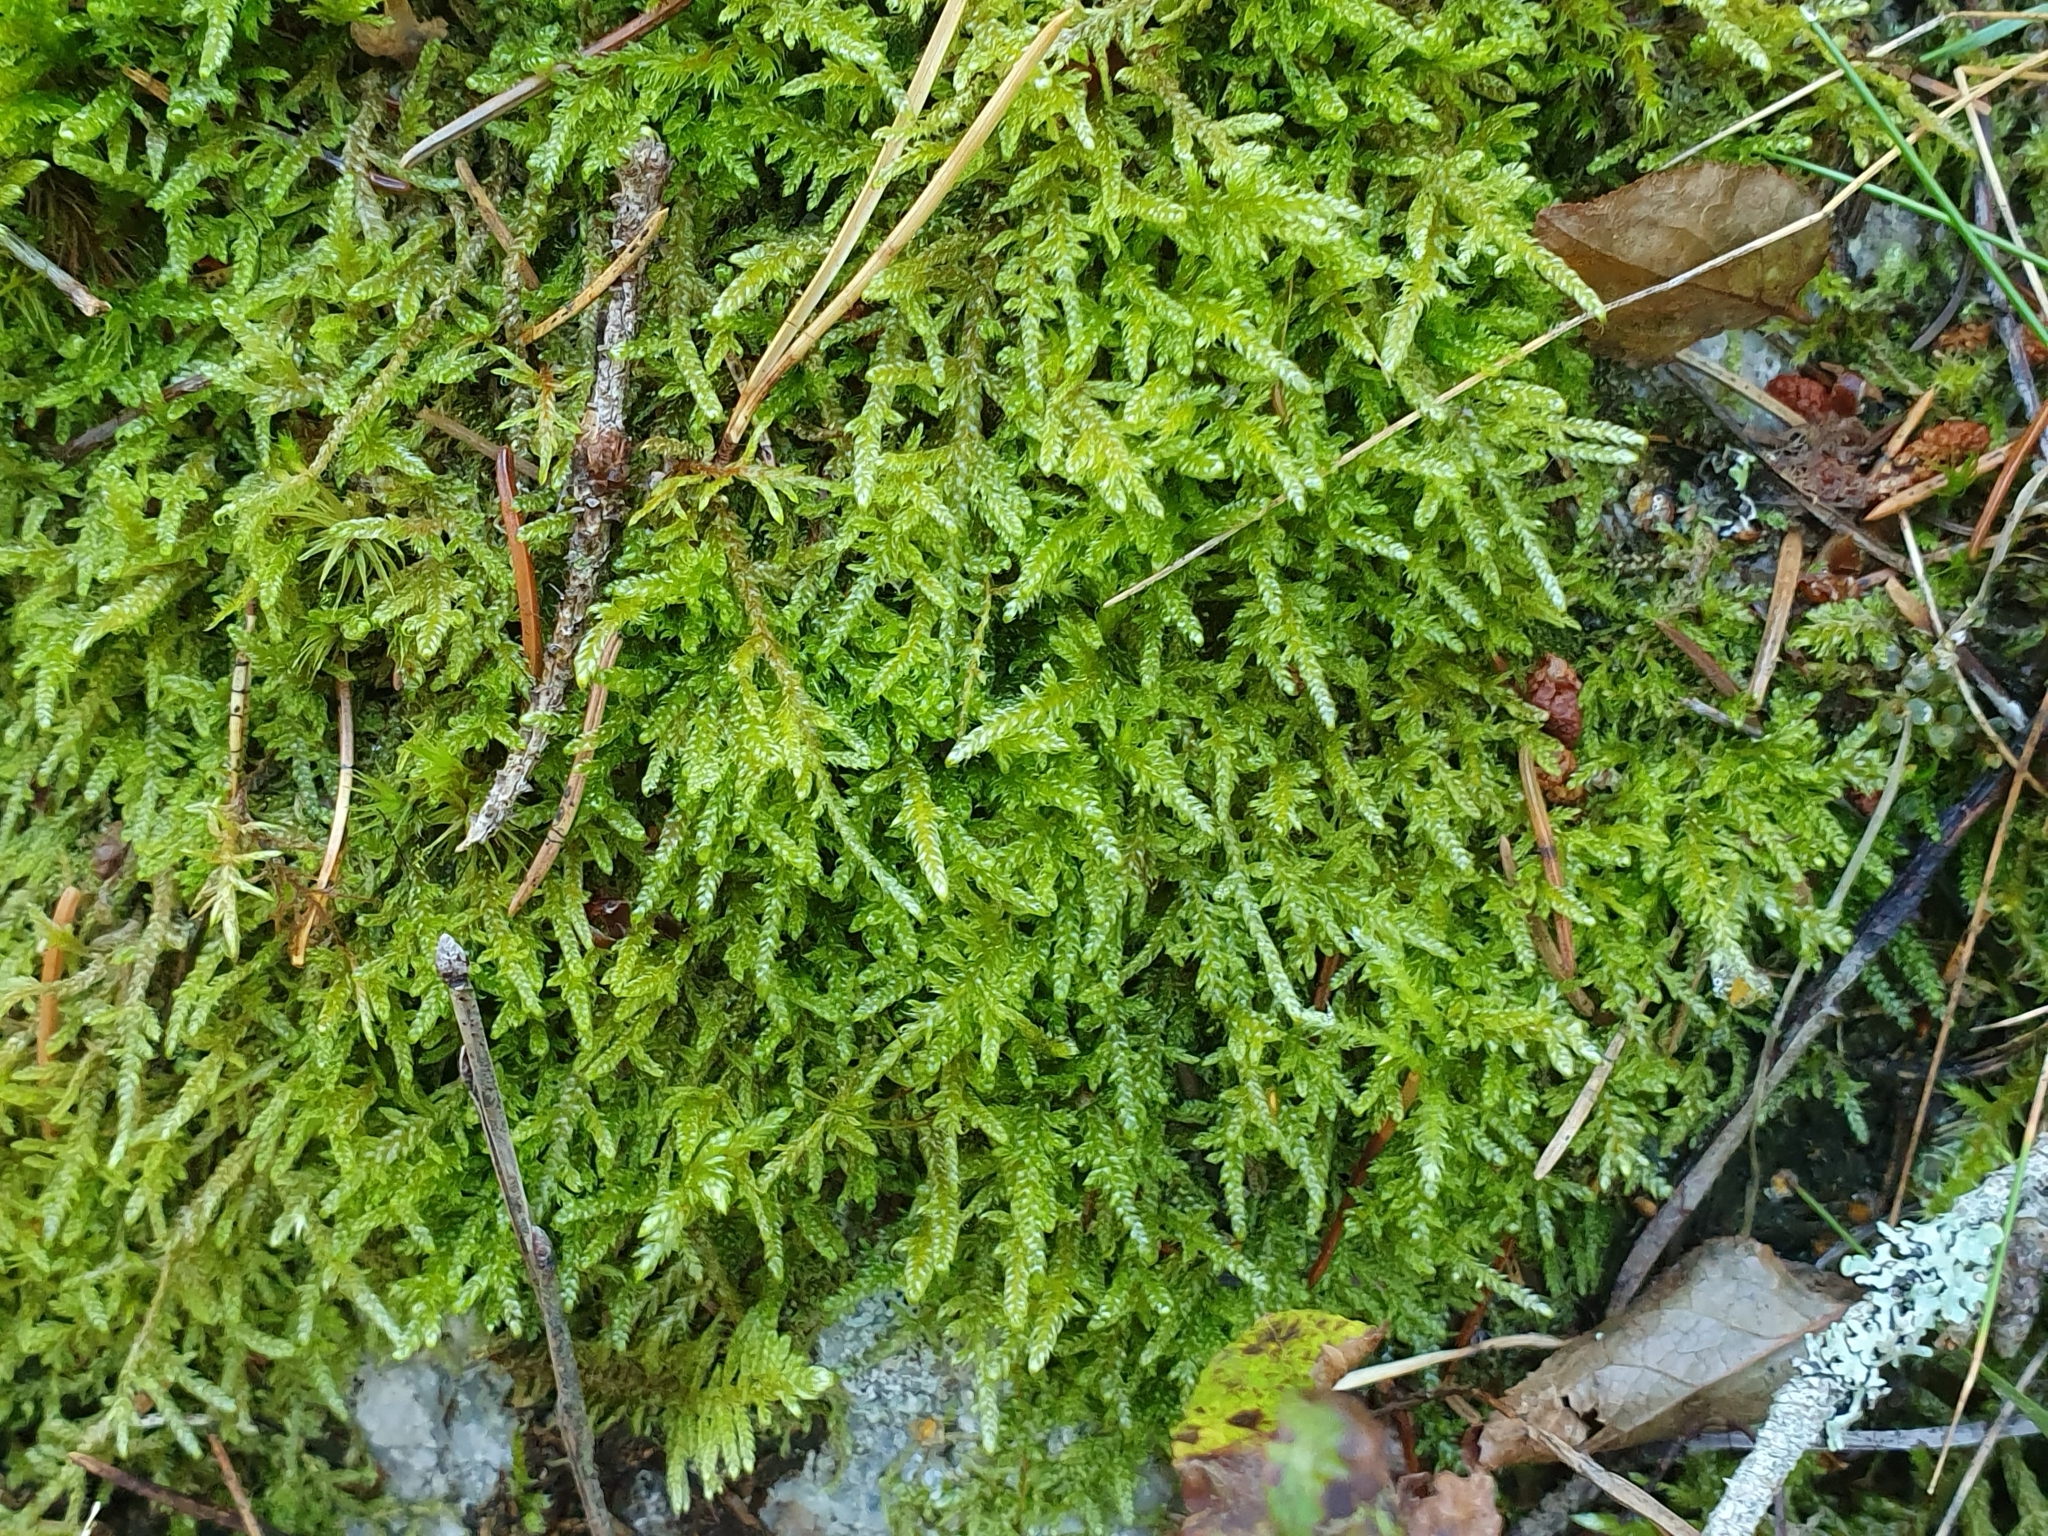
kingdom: Plantae
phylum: Bryophyta
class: Bryopsida
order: Hypnales
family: Hypnaceae
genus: Hypnum
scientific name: Hypnum cupressiforme
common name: Cypress-leaved plait-moss
